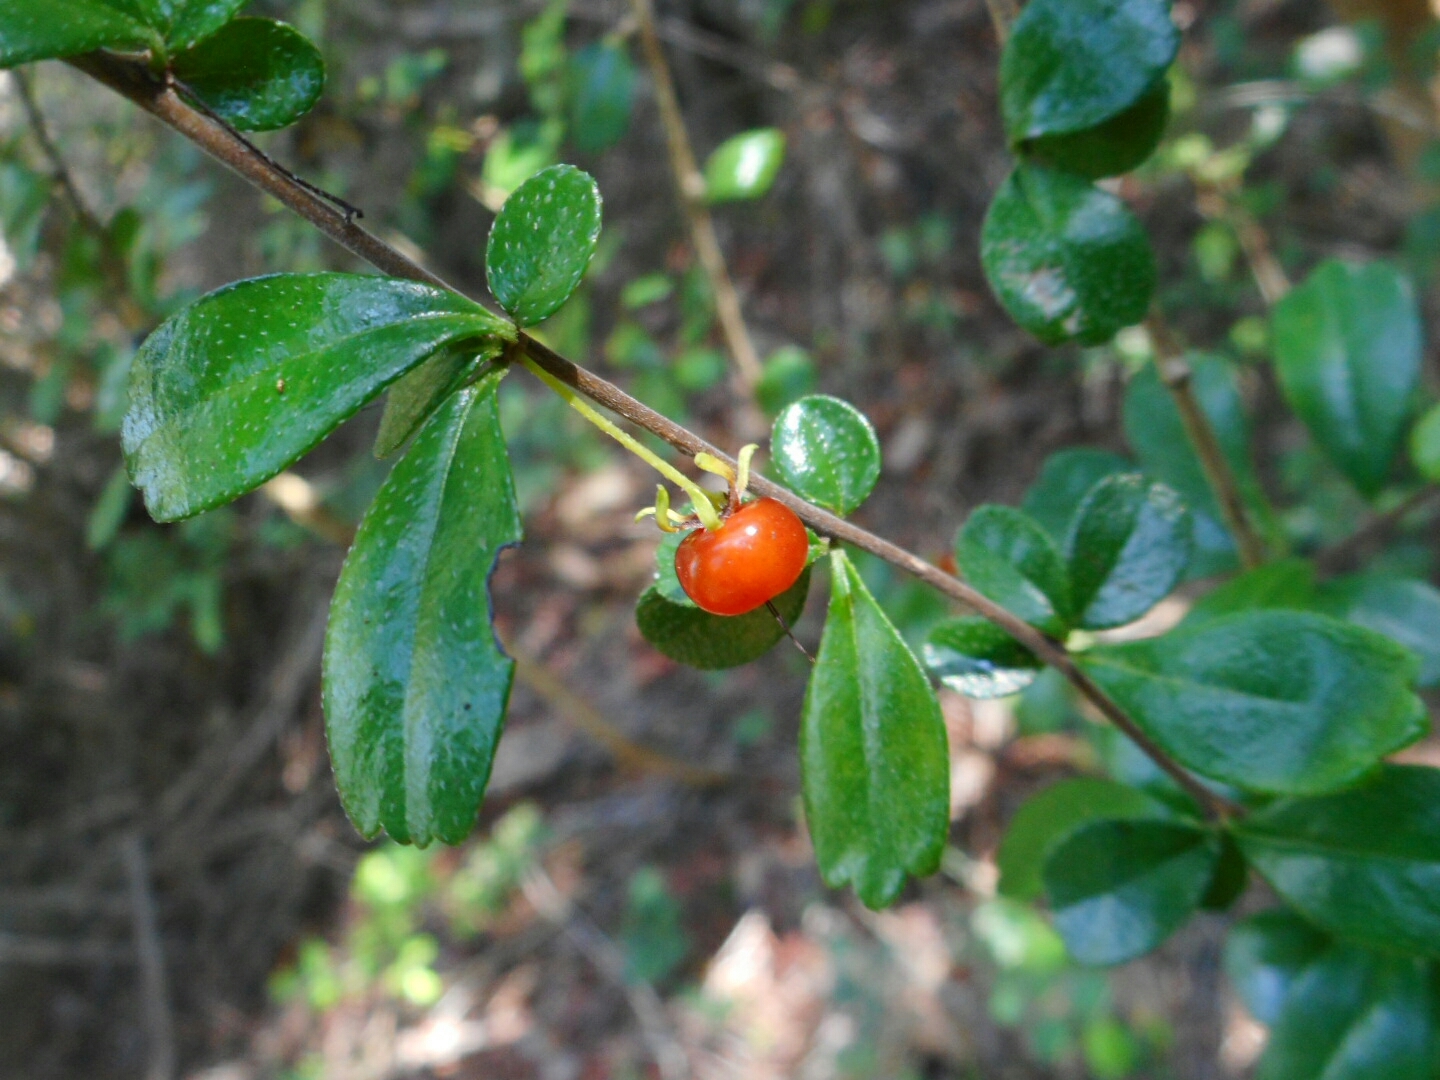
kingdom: Plantae
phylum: Tracheophyta
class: Magnoliopsida
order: Boraginales
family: Ehretiaceae
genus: Ehretia
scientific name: Ehretia microphylla
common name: Fukien-tea
